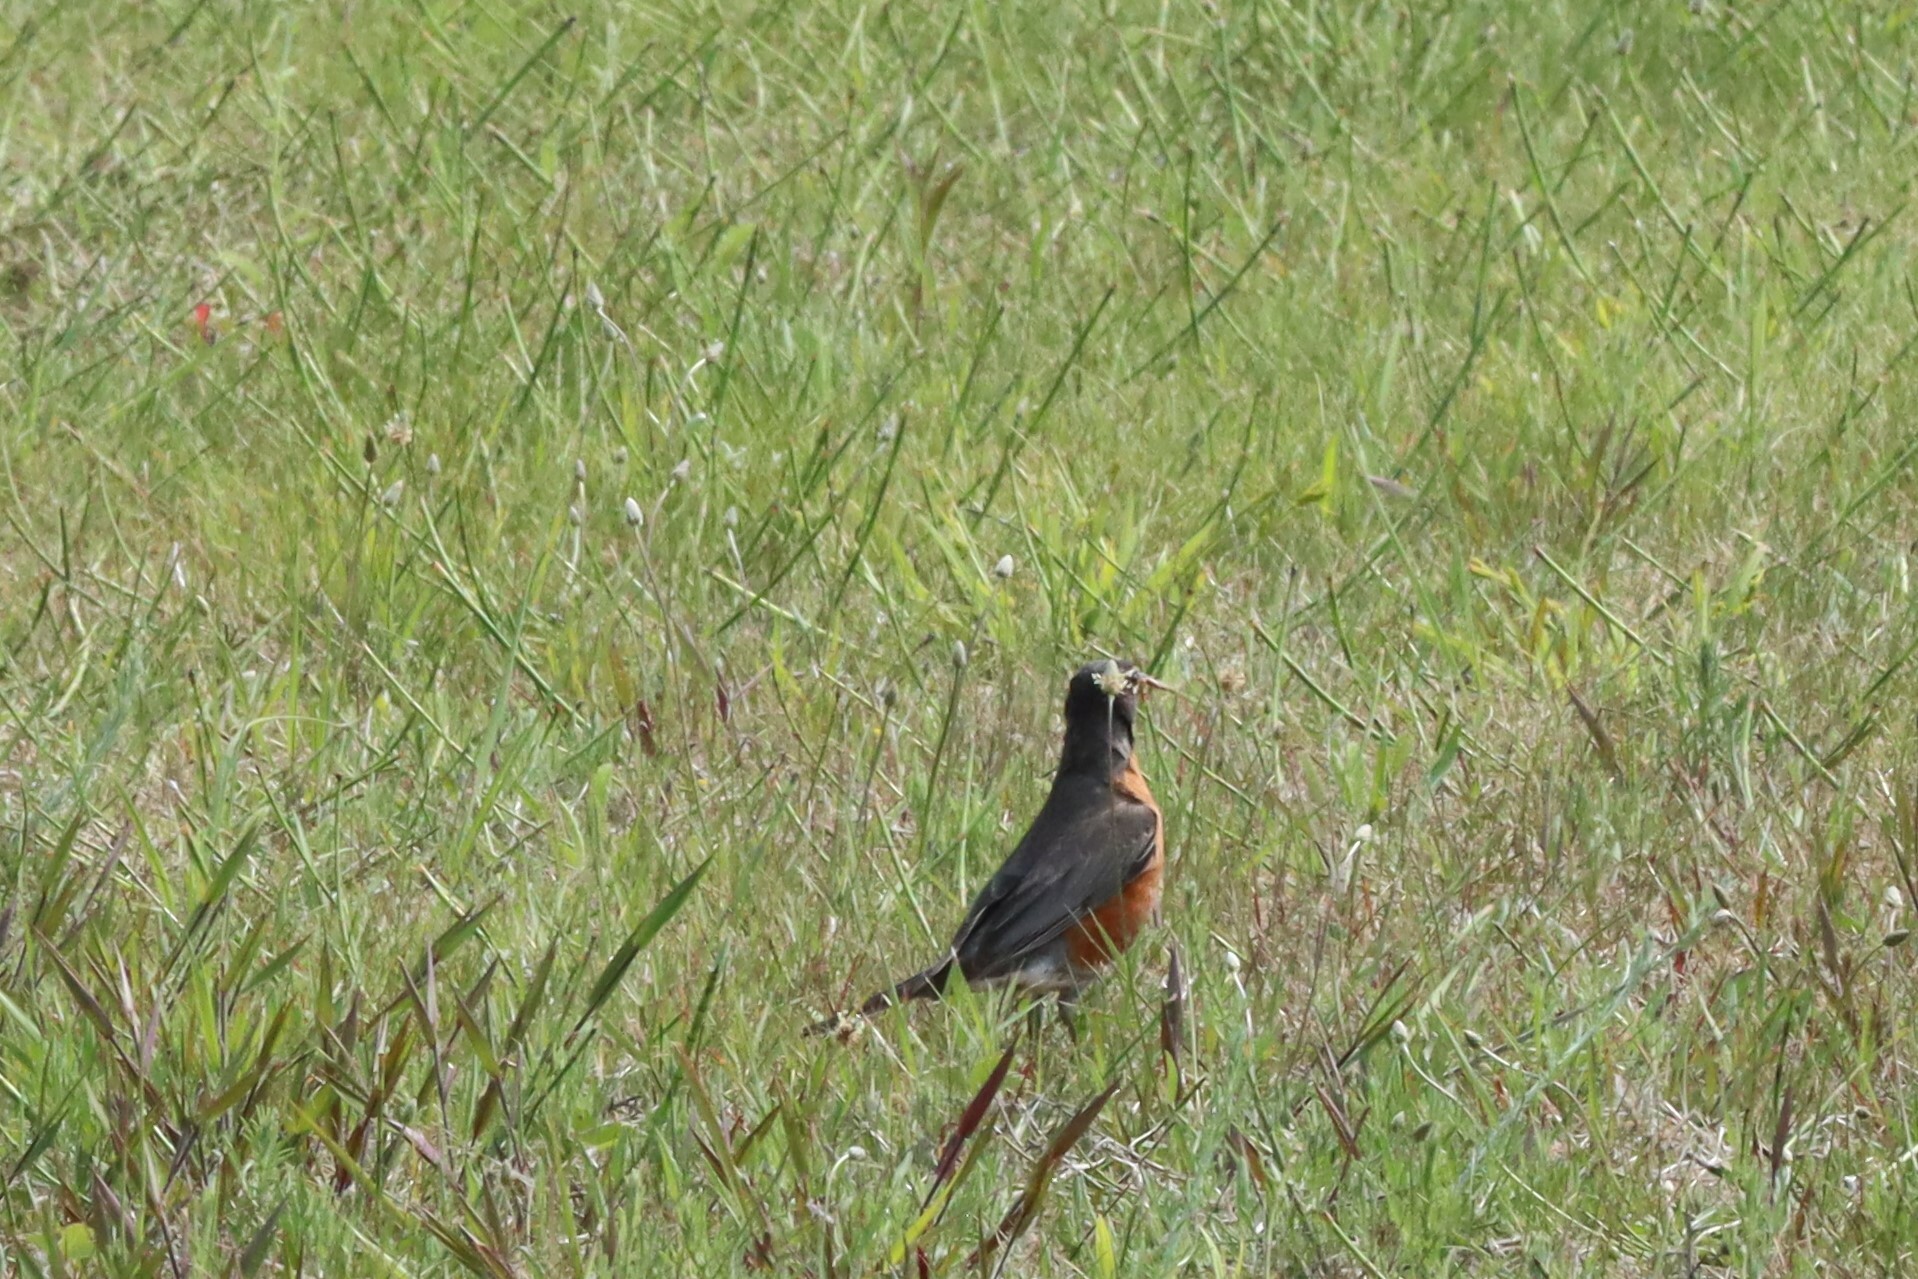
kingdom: Animalia
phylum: Chordata
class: Aves
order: Passeriformes
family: Turdidae
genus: Turdus
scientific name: Turdus migratorius
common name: American robin
